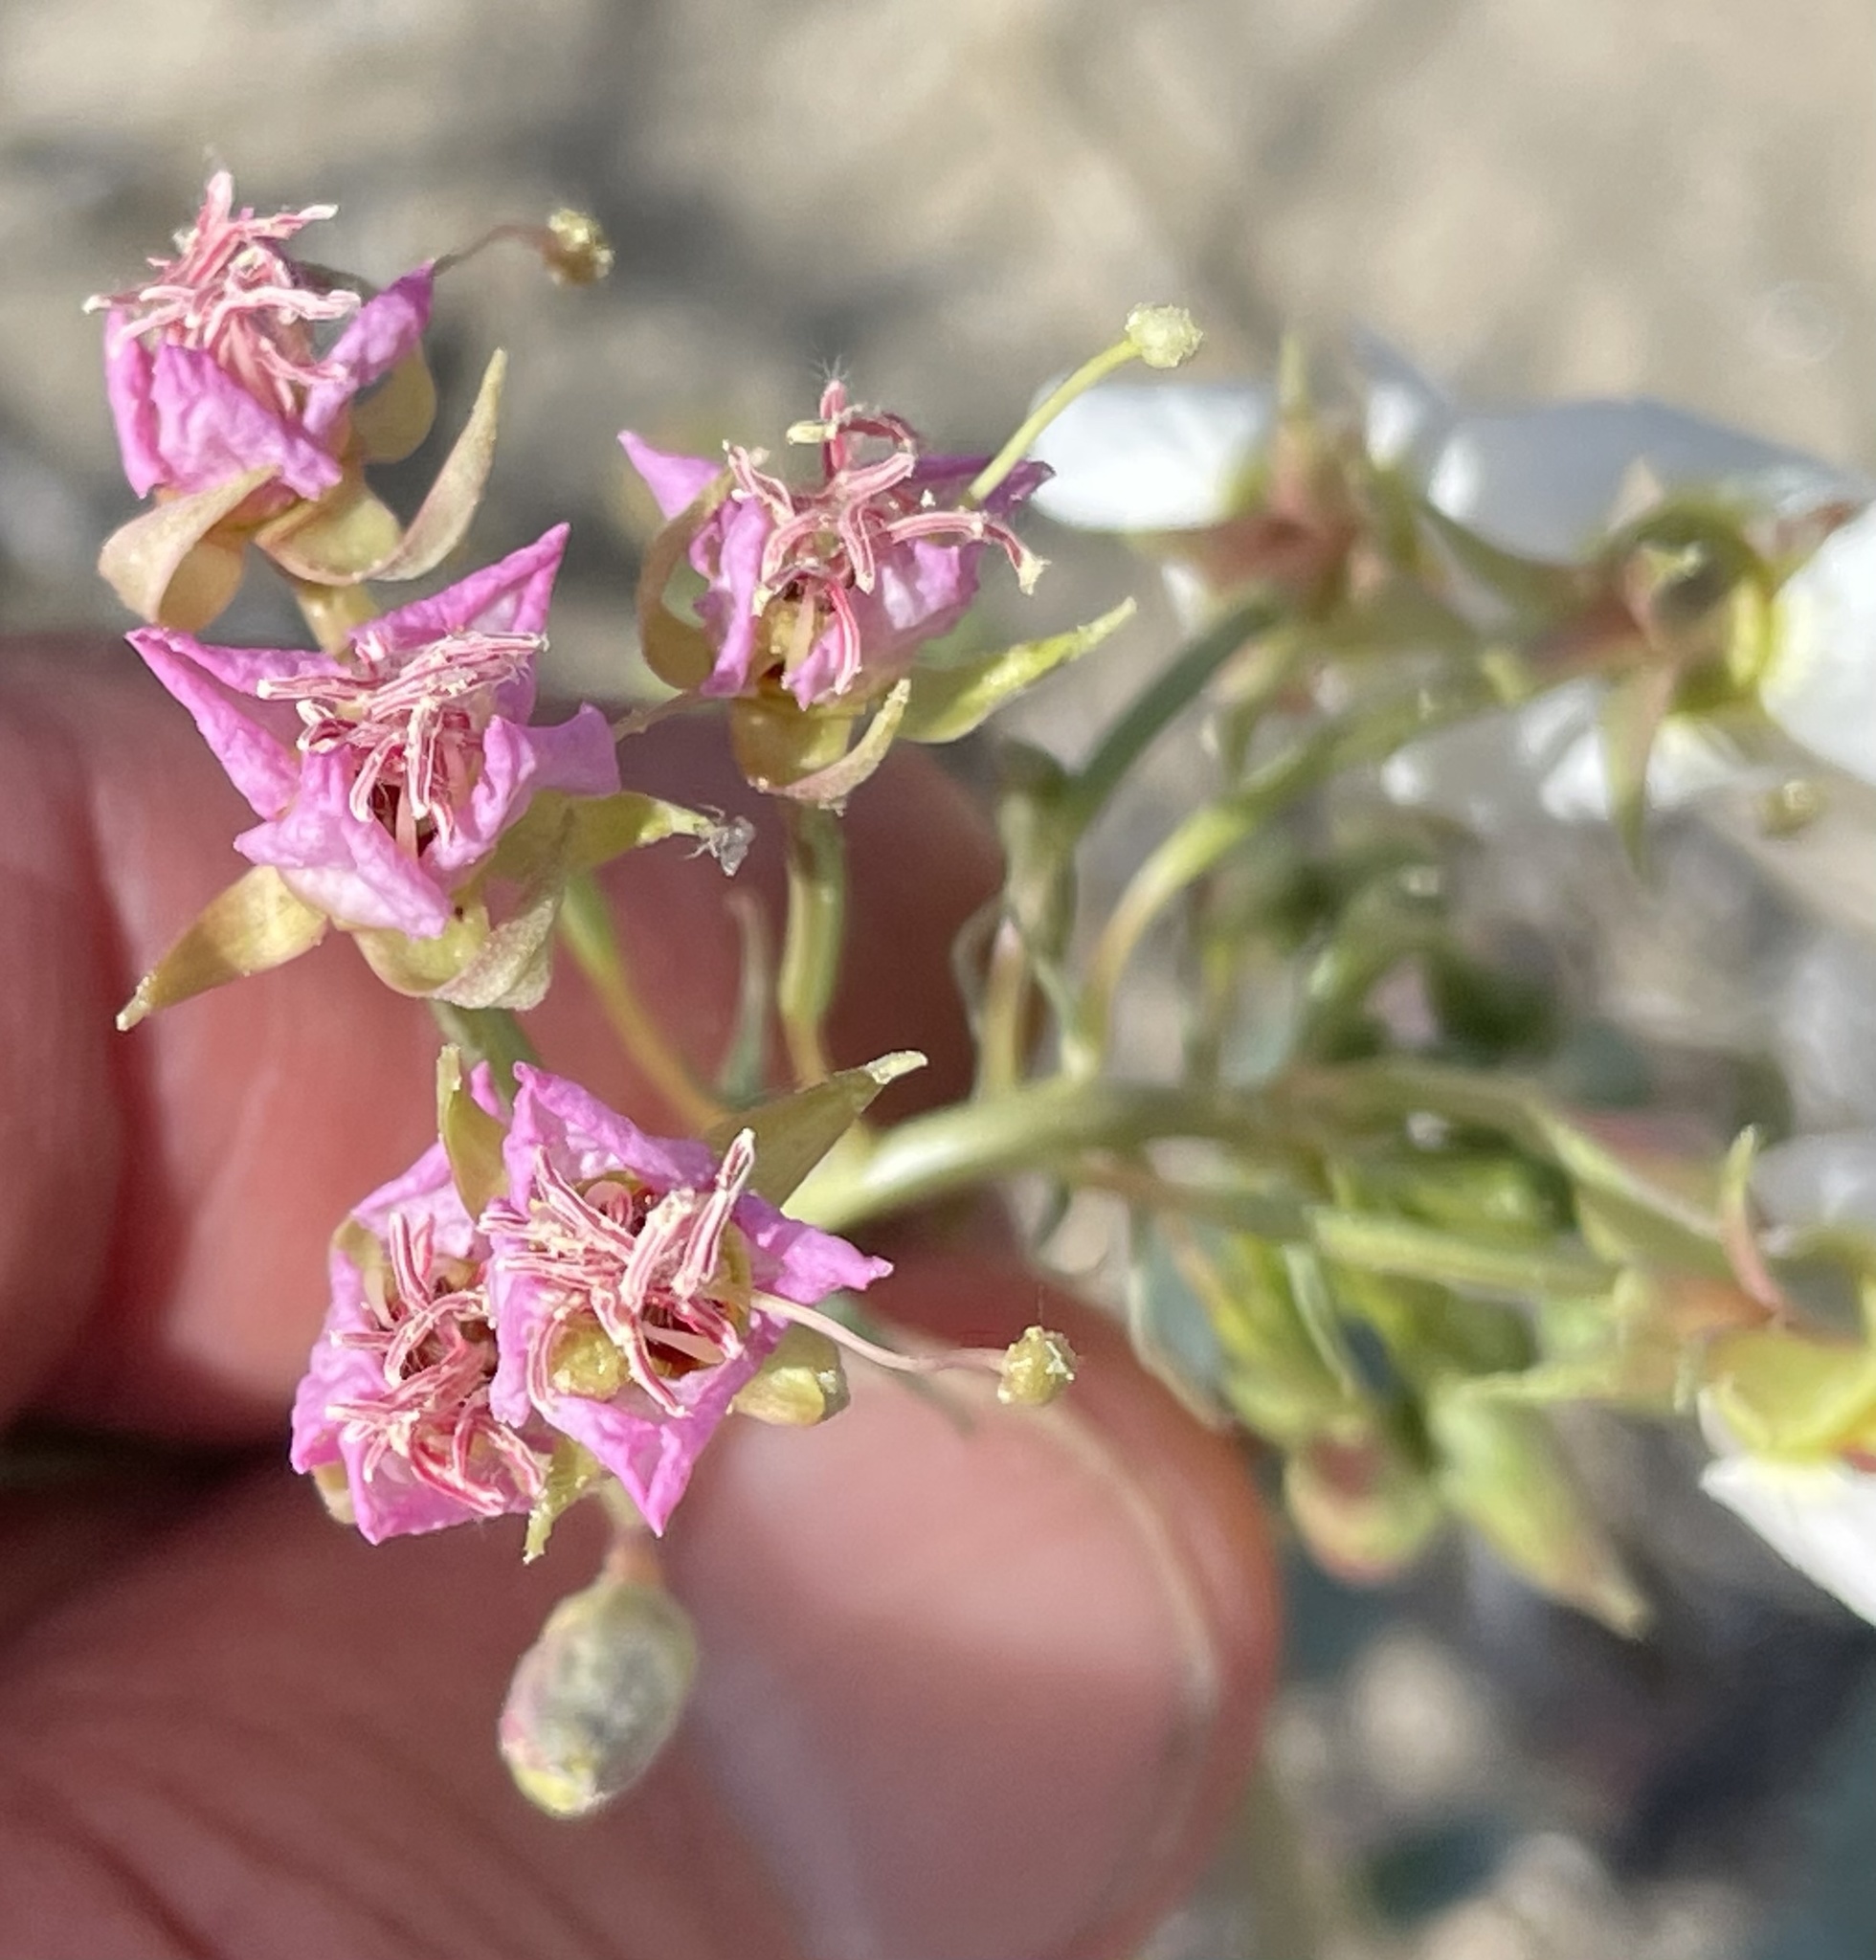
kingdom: Plantae
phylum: Tracheophyta
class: Magnoliopsida
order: Myrtales
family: Onagraceae
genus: Chylismia
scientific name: Chylismia claviformis
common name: Browneyes
